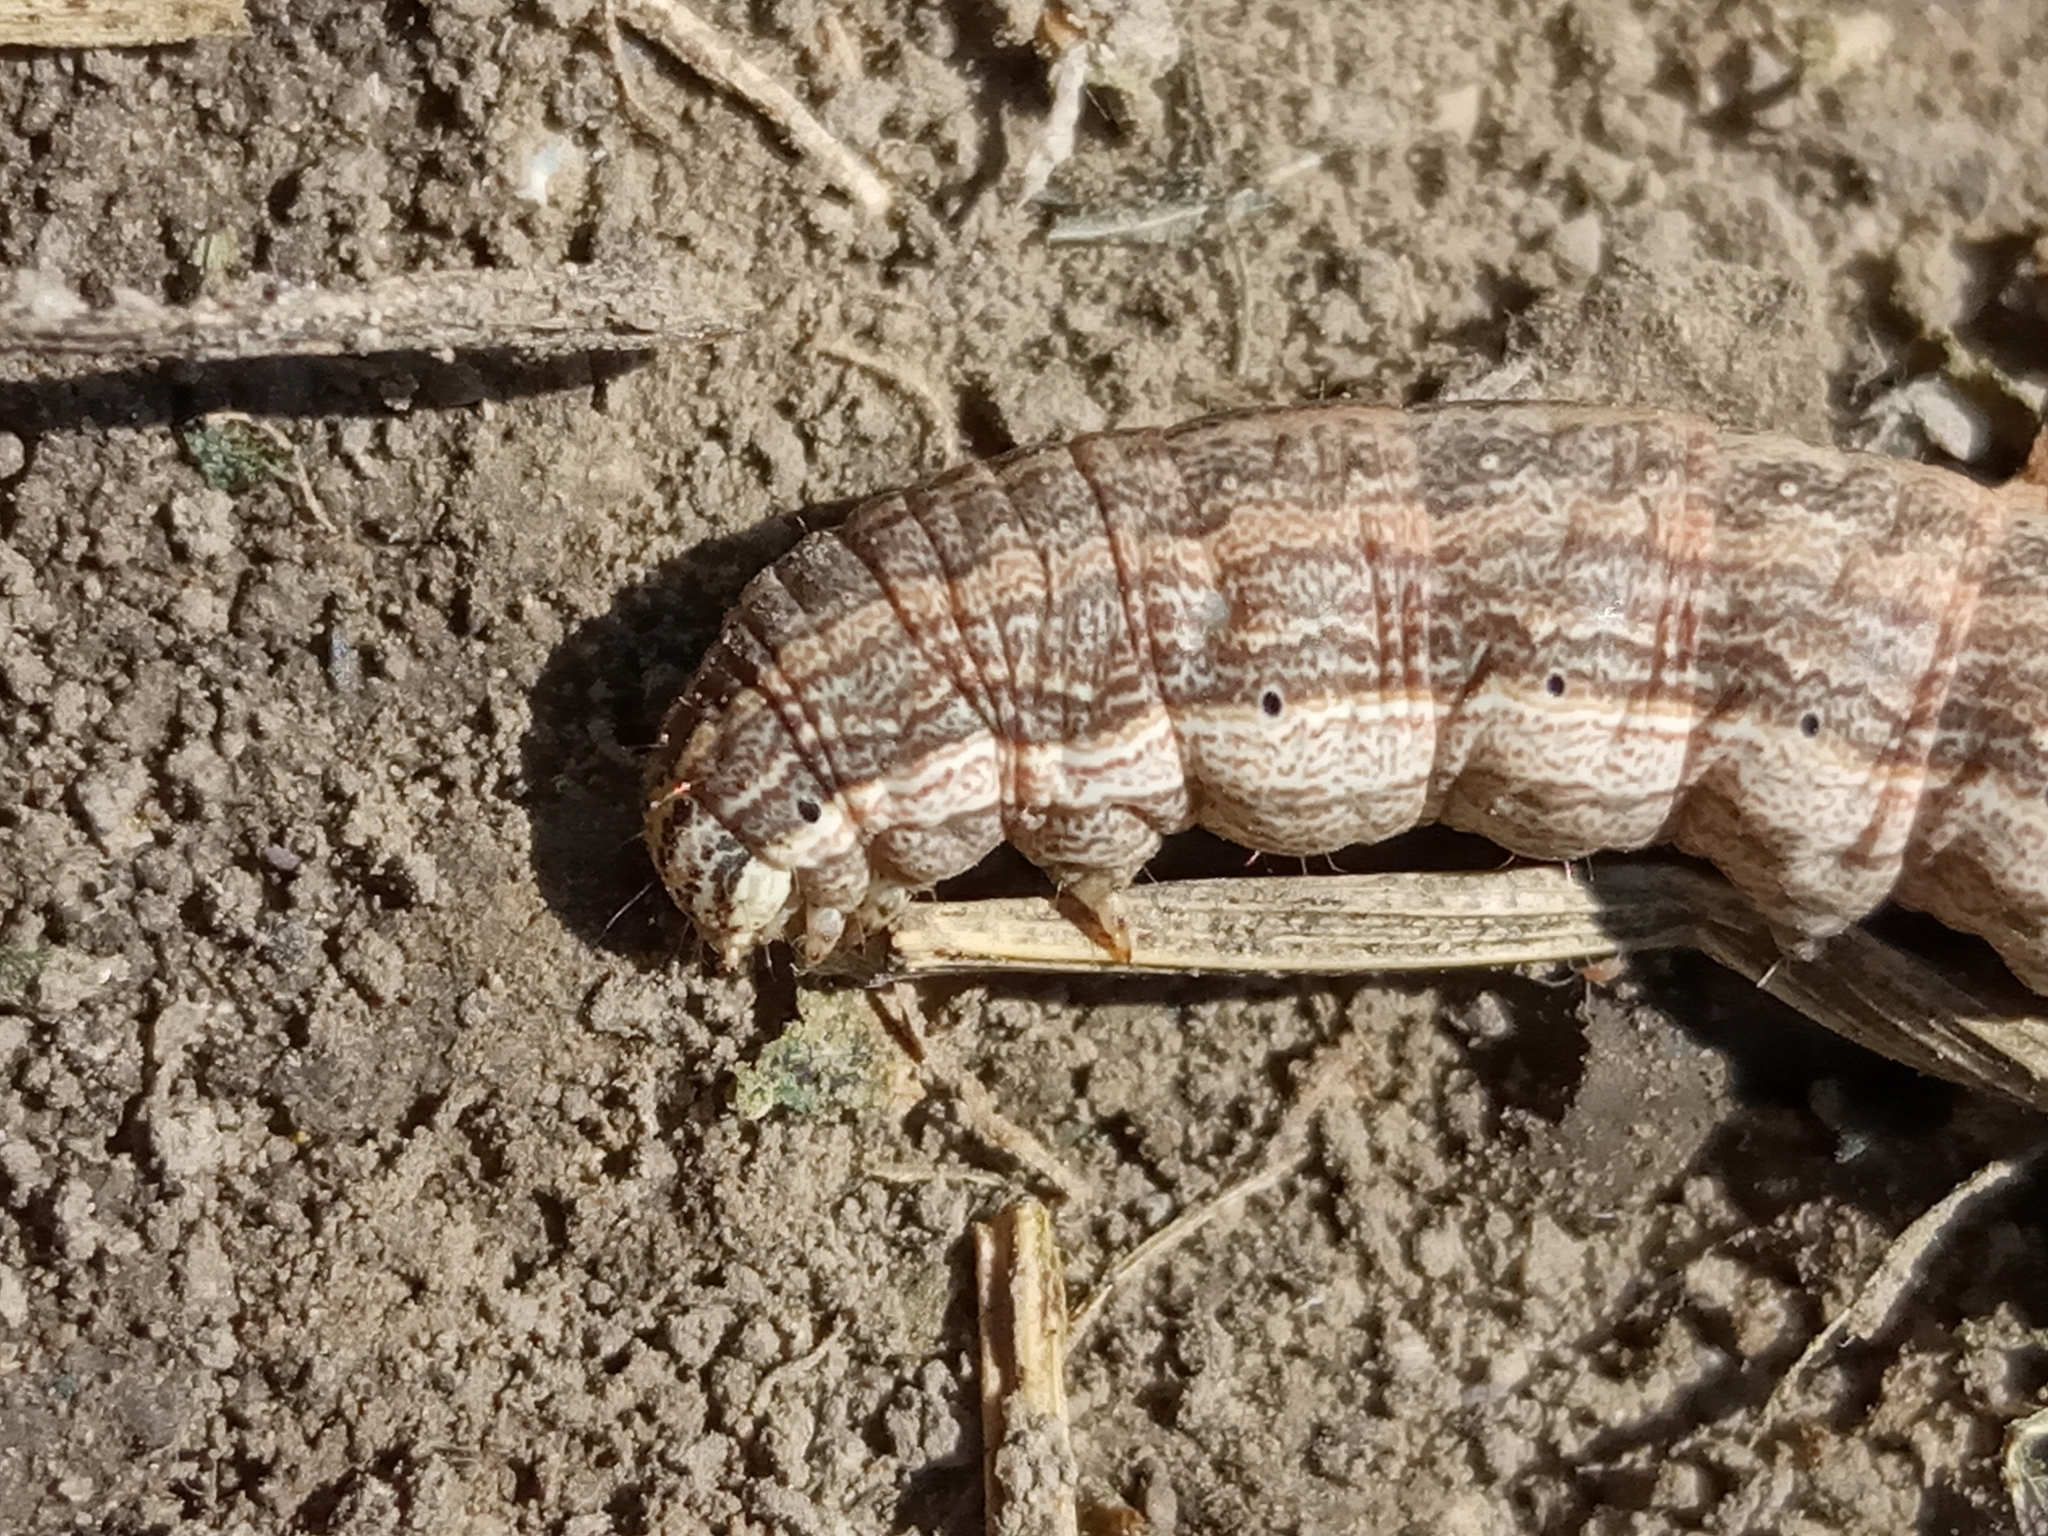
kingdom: Animalia
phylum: Arthropoda
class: Insecta
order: Lepidoptera
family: Noctuidae
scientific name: Noctuidae
